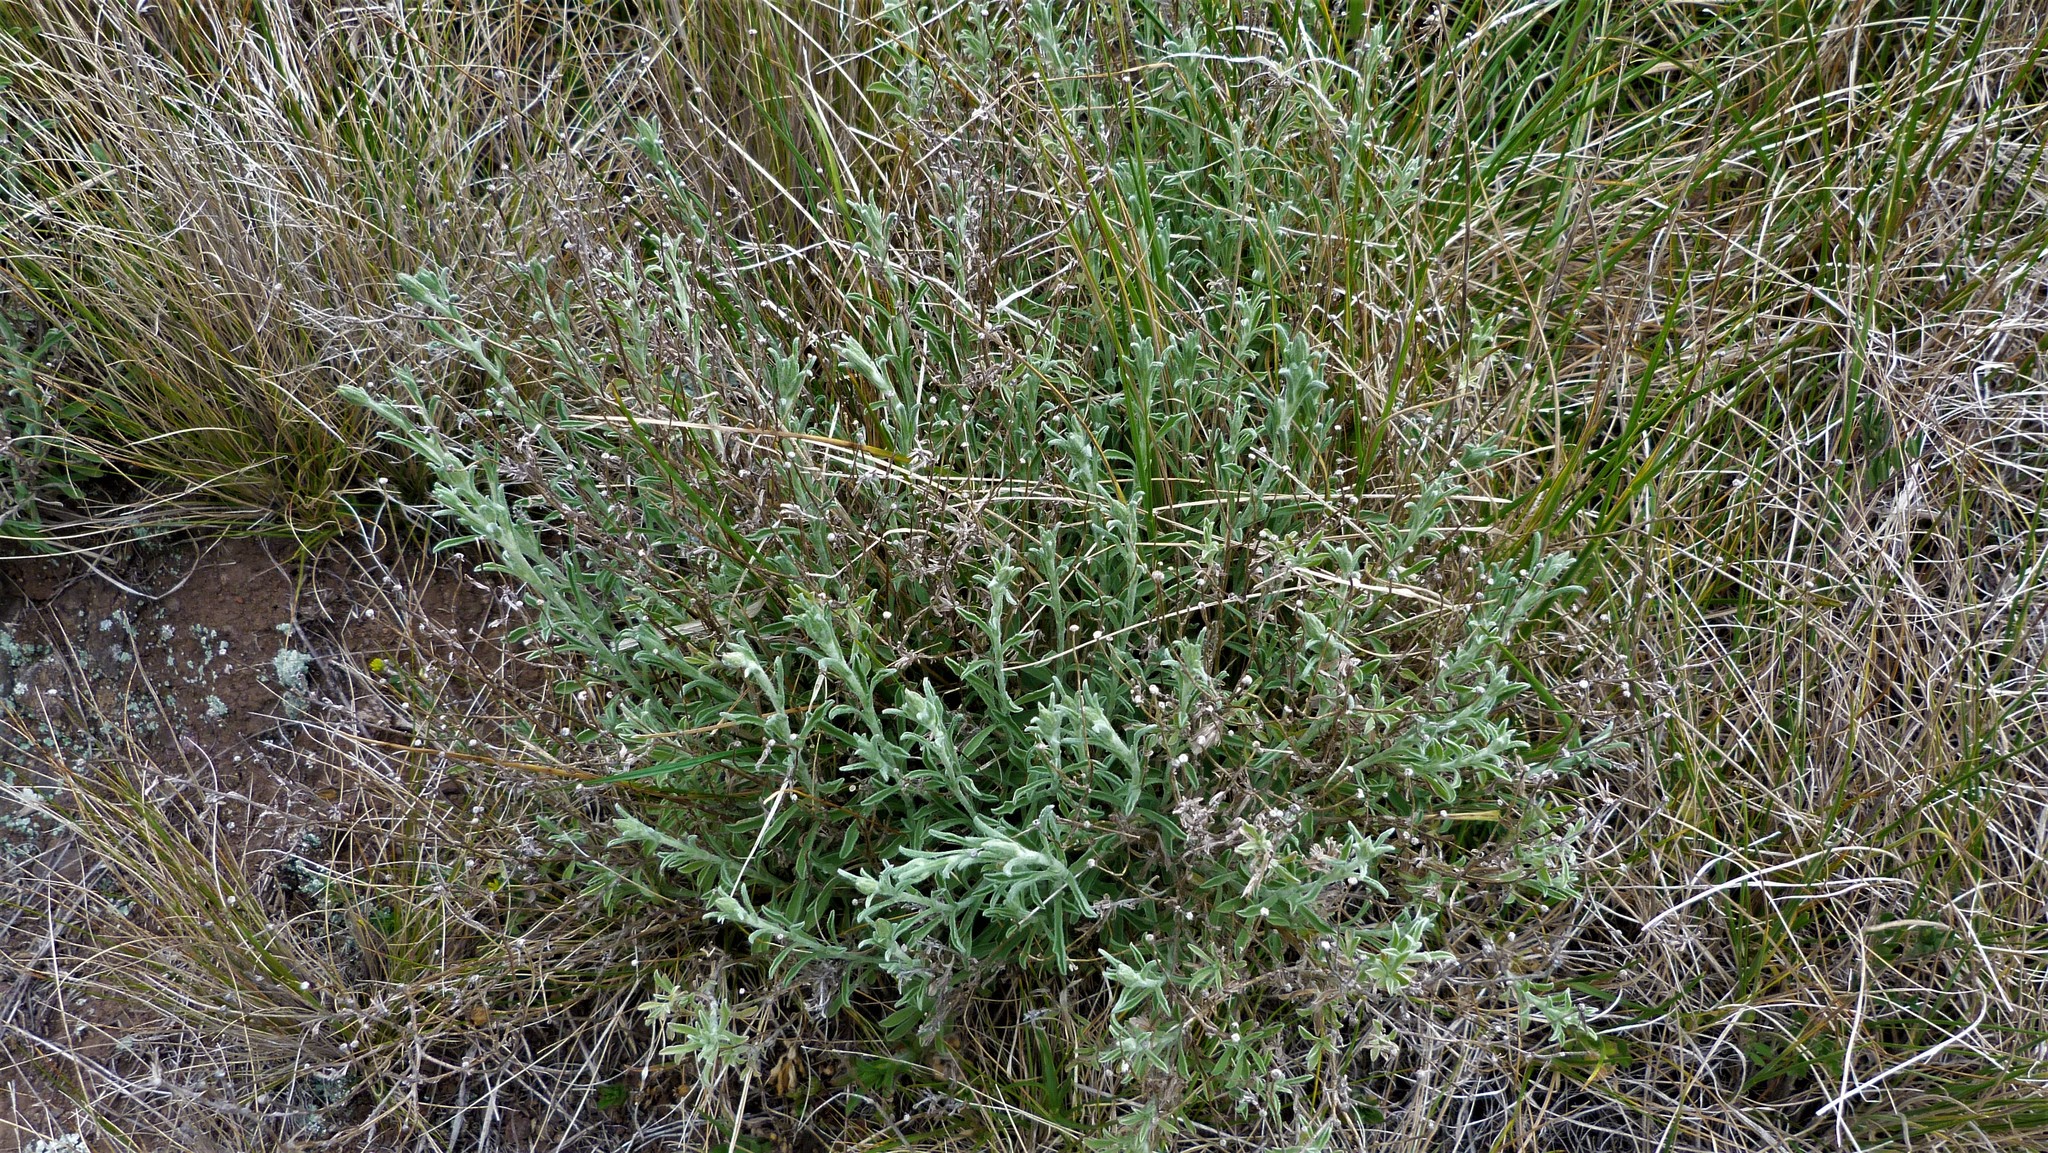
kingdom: Plantae
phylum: Tracheophyta
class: Magnoliopsida
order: Asterales
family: Asteraceae
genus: Vittadinia
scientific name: Vittadinia gracilis
